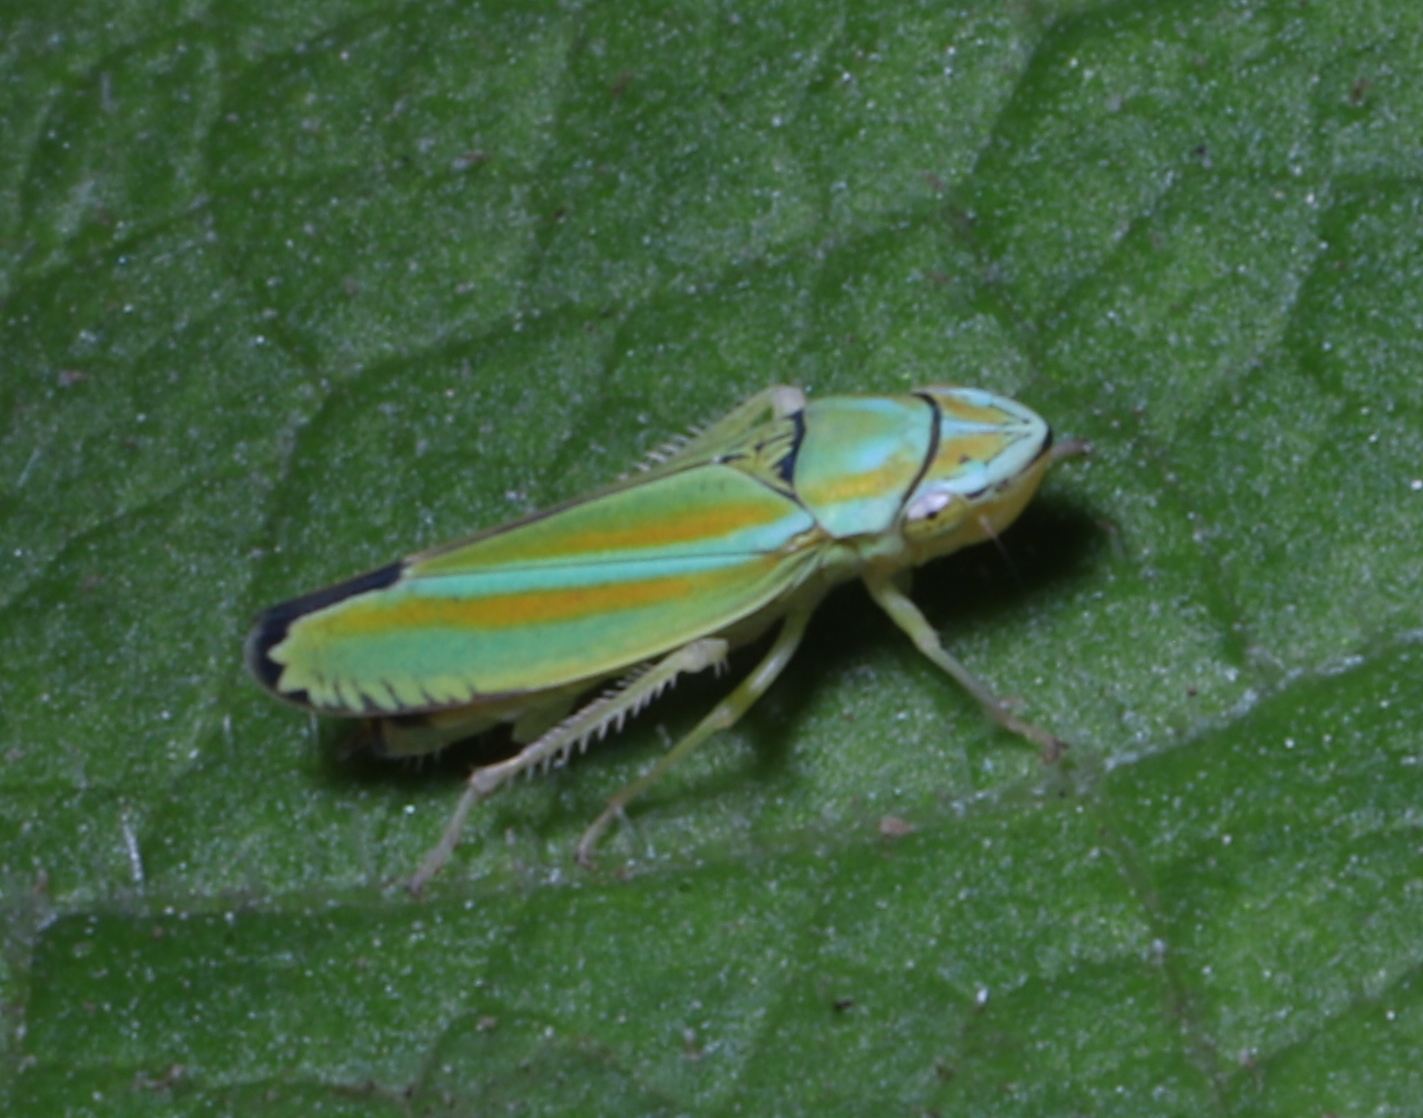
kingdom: Animalia
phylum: Arthropoda
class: Insecta
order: Hemiptera
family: Cicadellidae
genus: Graphocephala
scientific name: Graphocephala versuta
